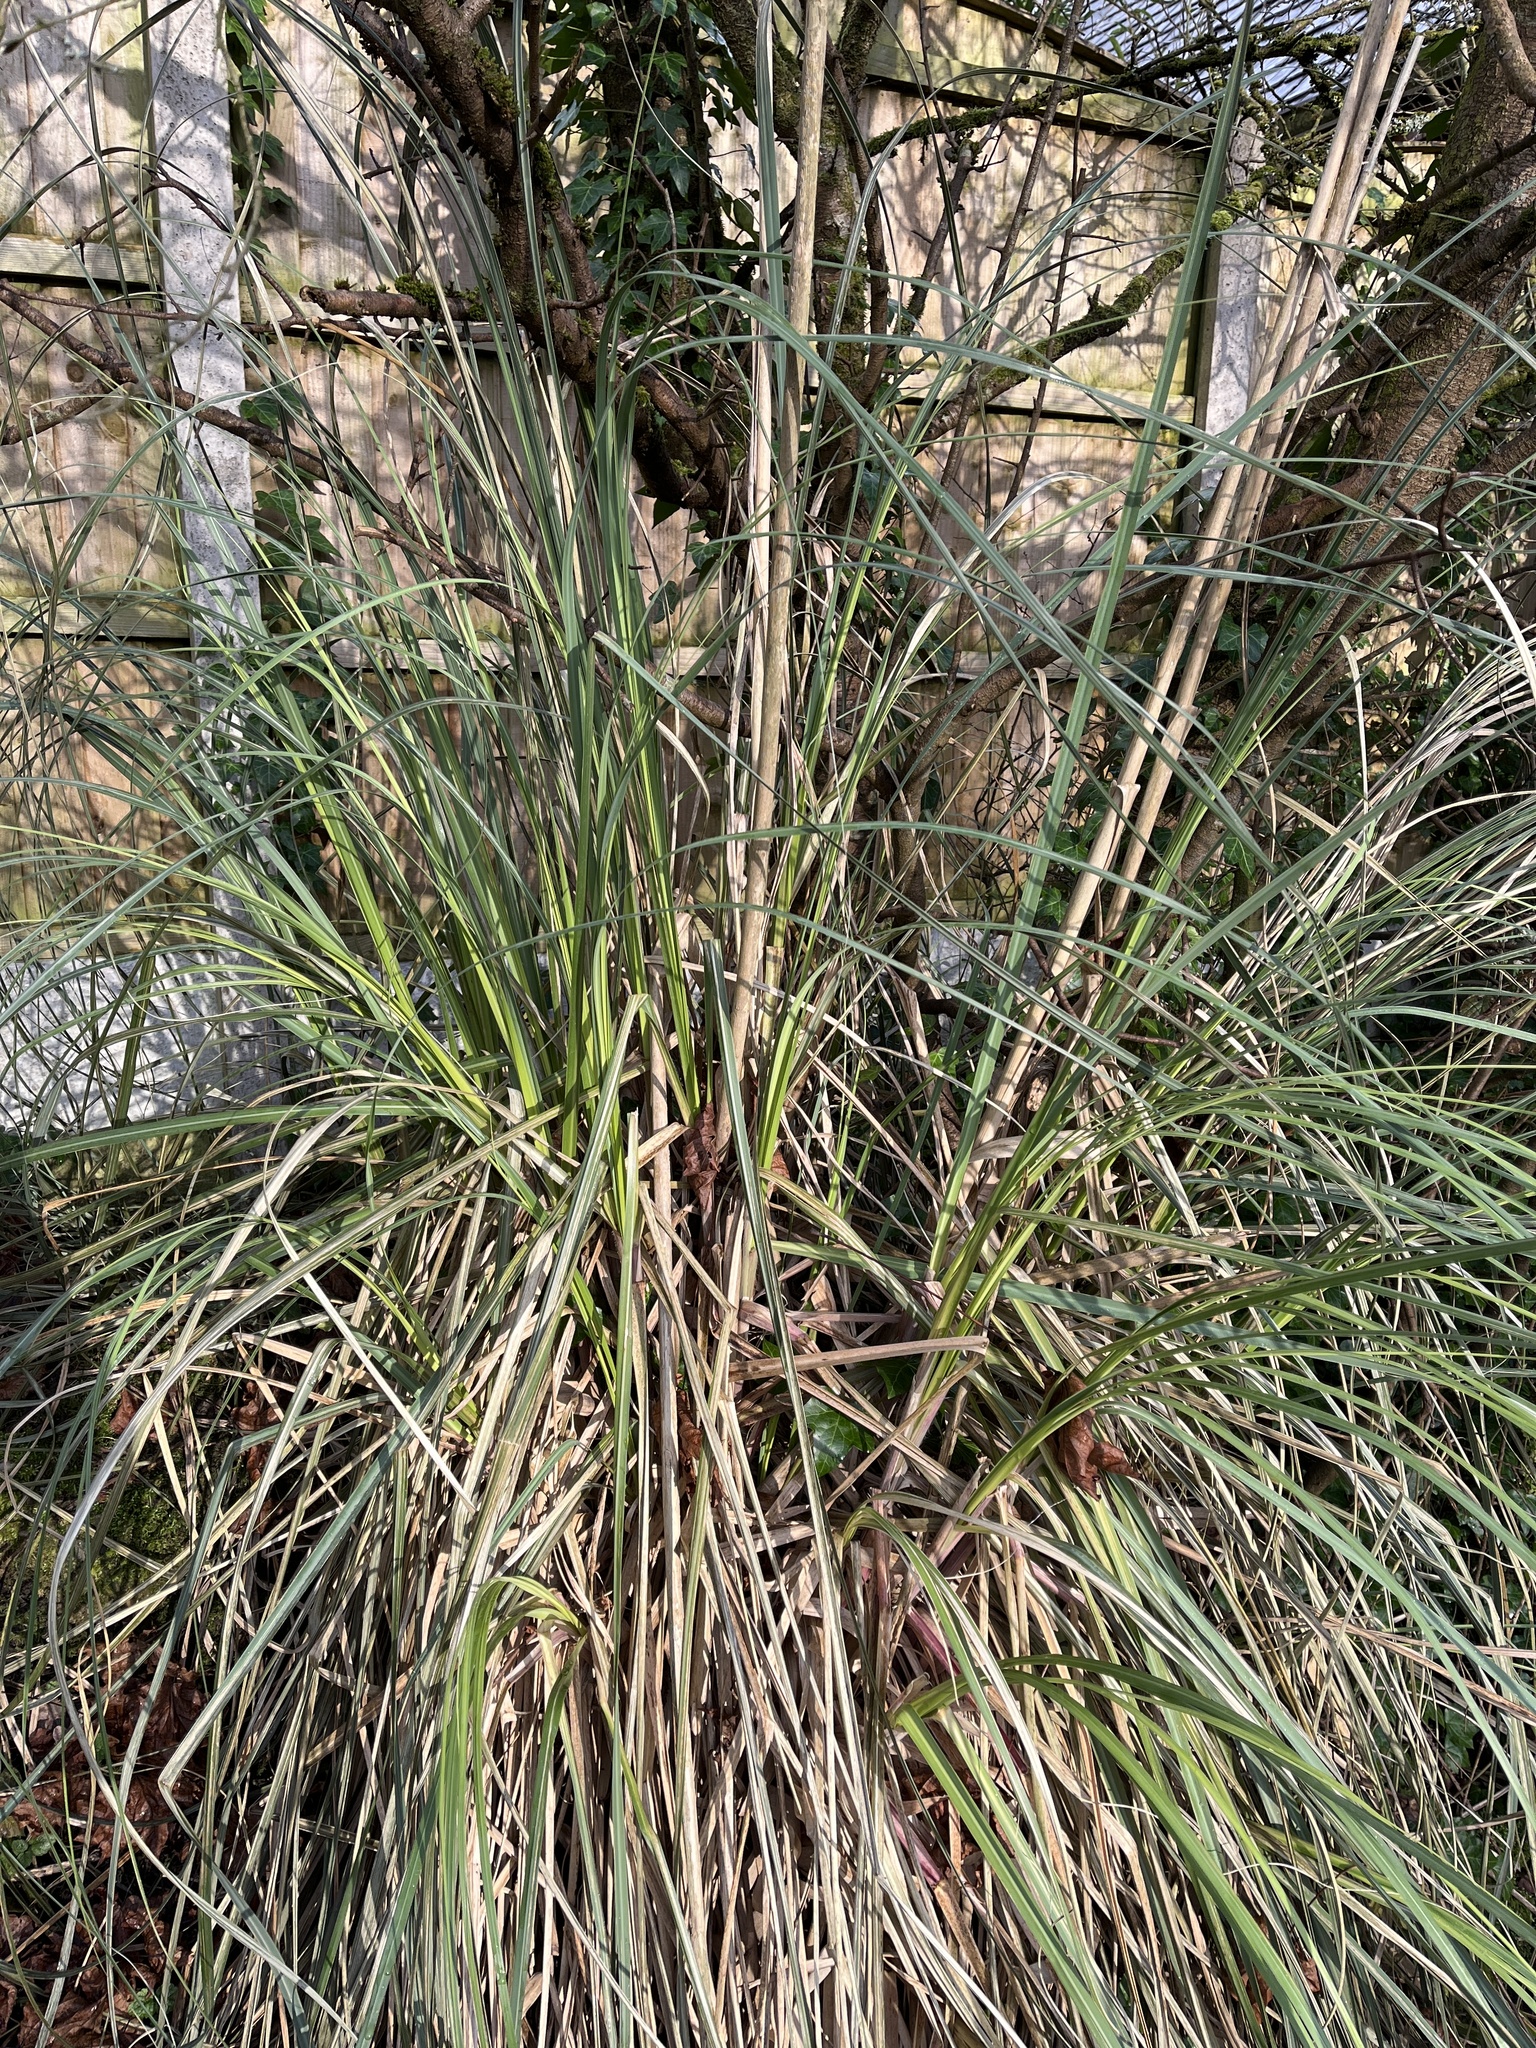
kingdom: Plantae
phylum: Tracheophyta
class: Liliopsida
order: Poales
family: Poaceae
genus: Cortaderia
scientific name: Cortaderia selloana
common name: Uruguayan pampas grass
